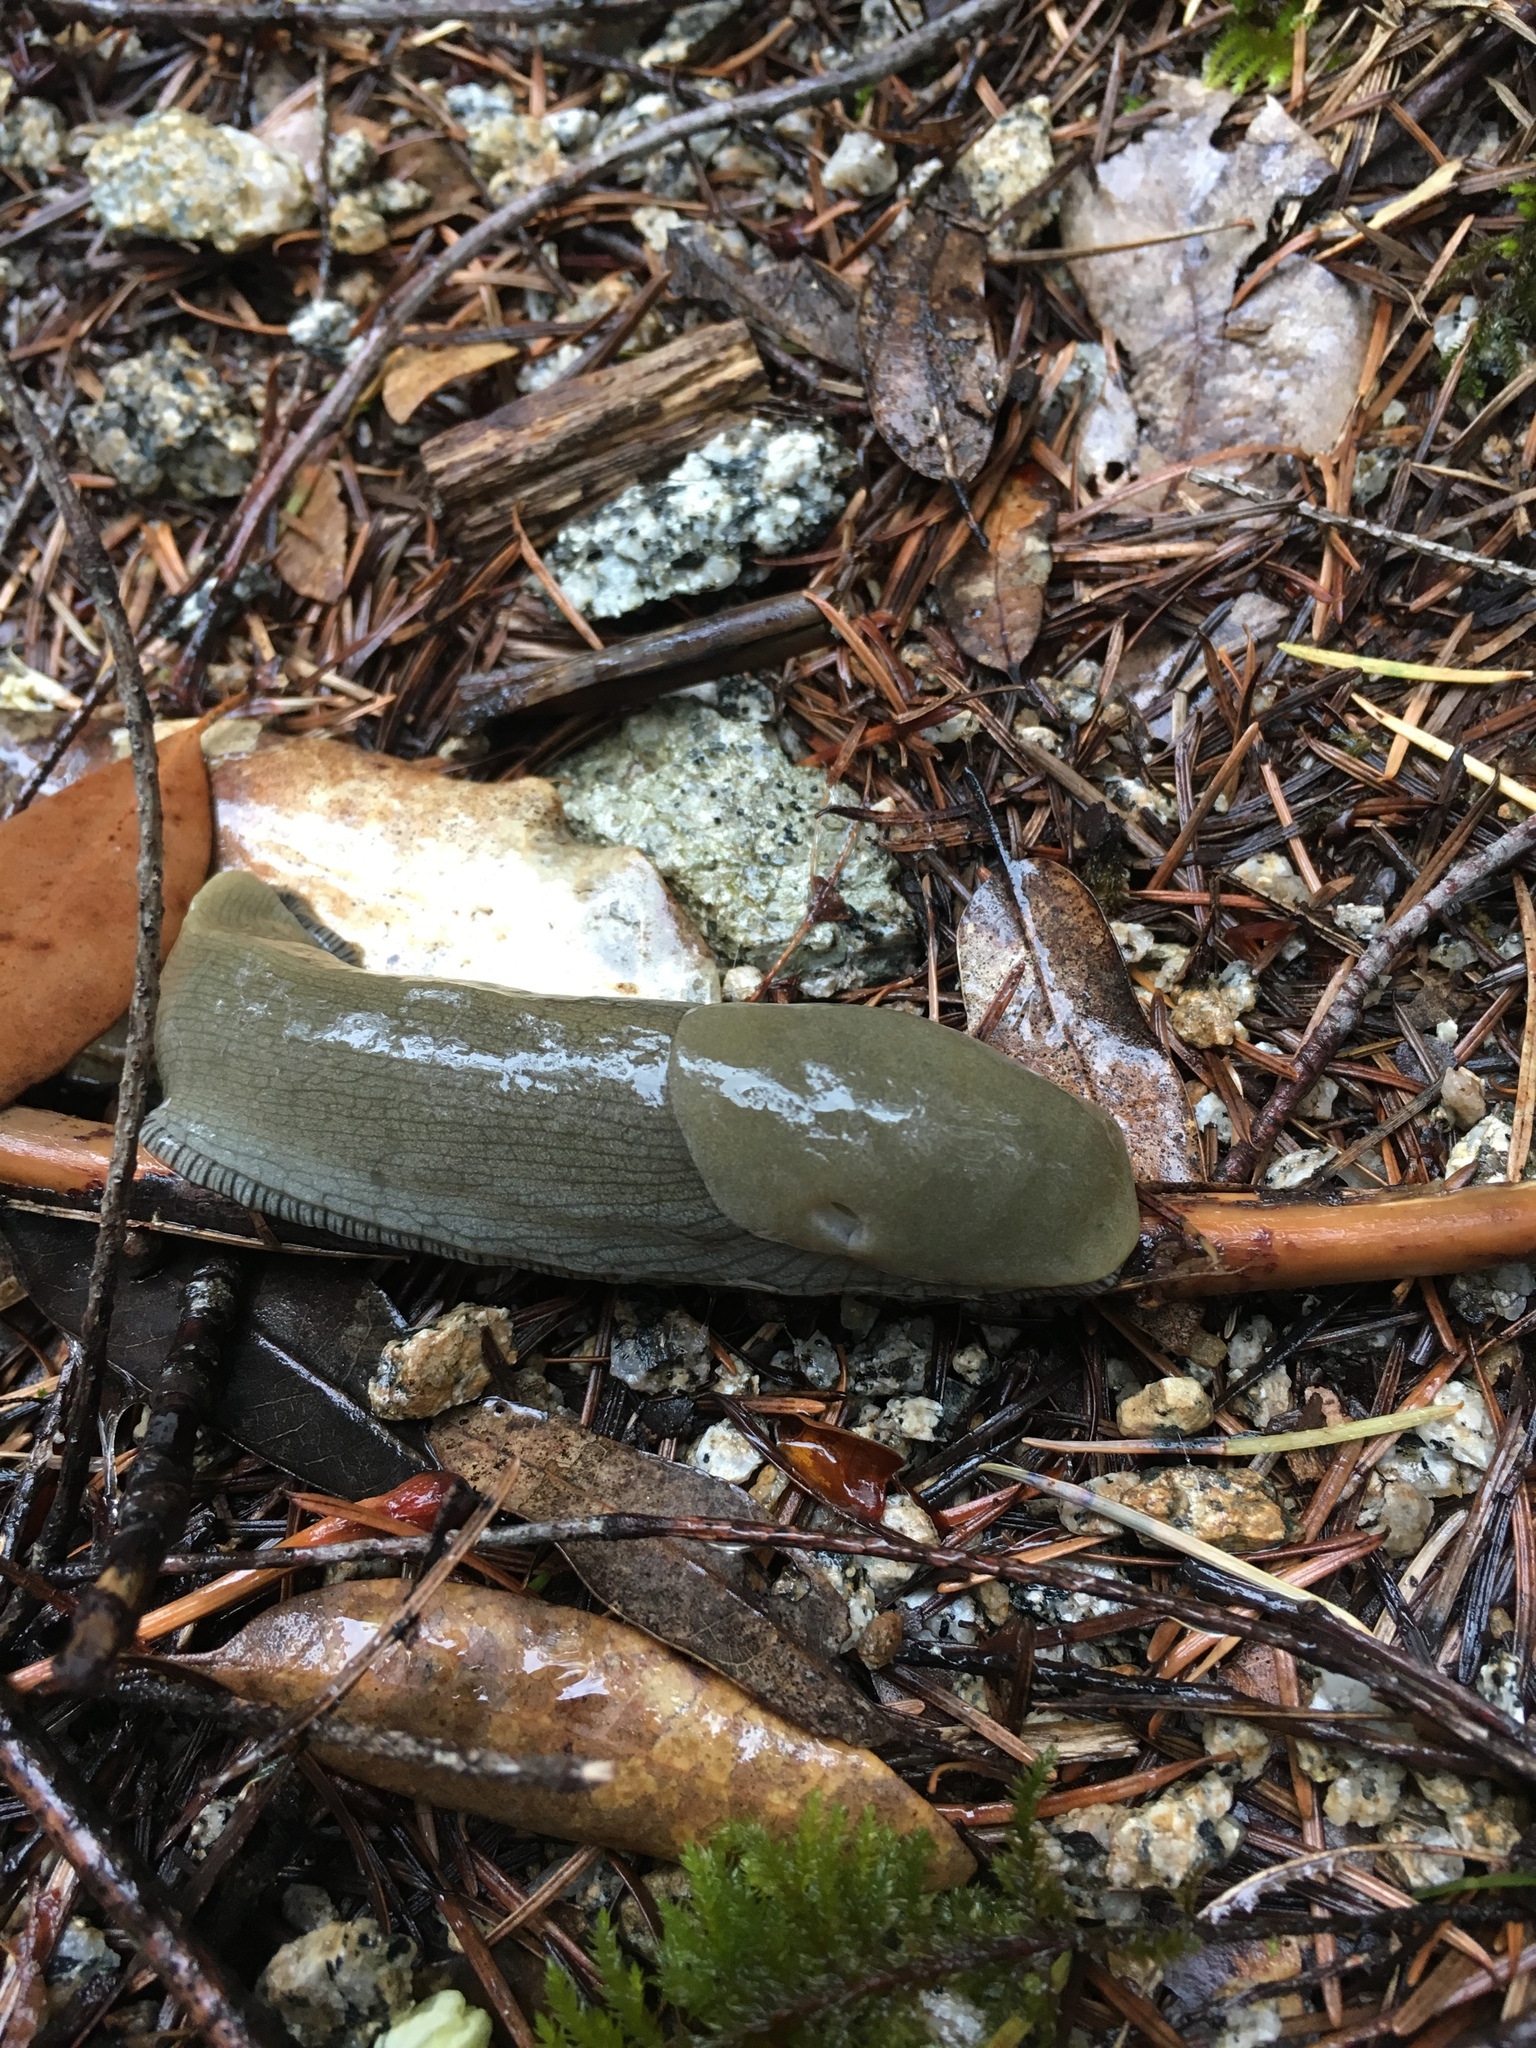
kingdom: Animalia
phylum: Mollusca
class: Gastropoda
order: Stylommatophora
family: Ariolimacidae
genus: Ariolimax
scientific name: Ariolimax buttoni
